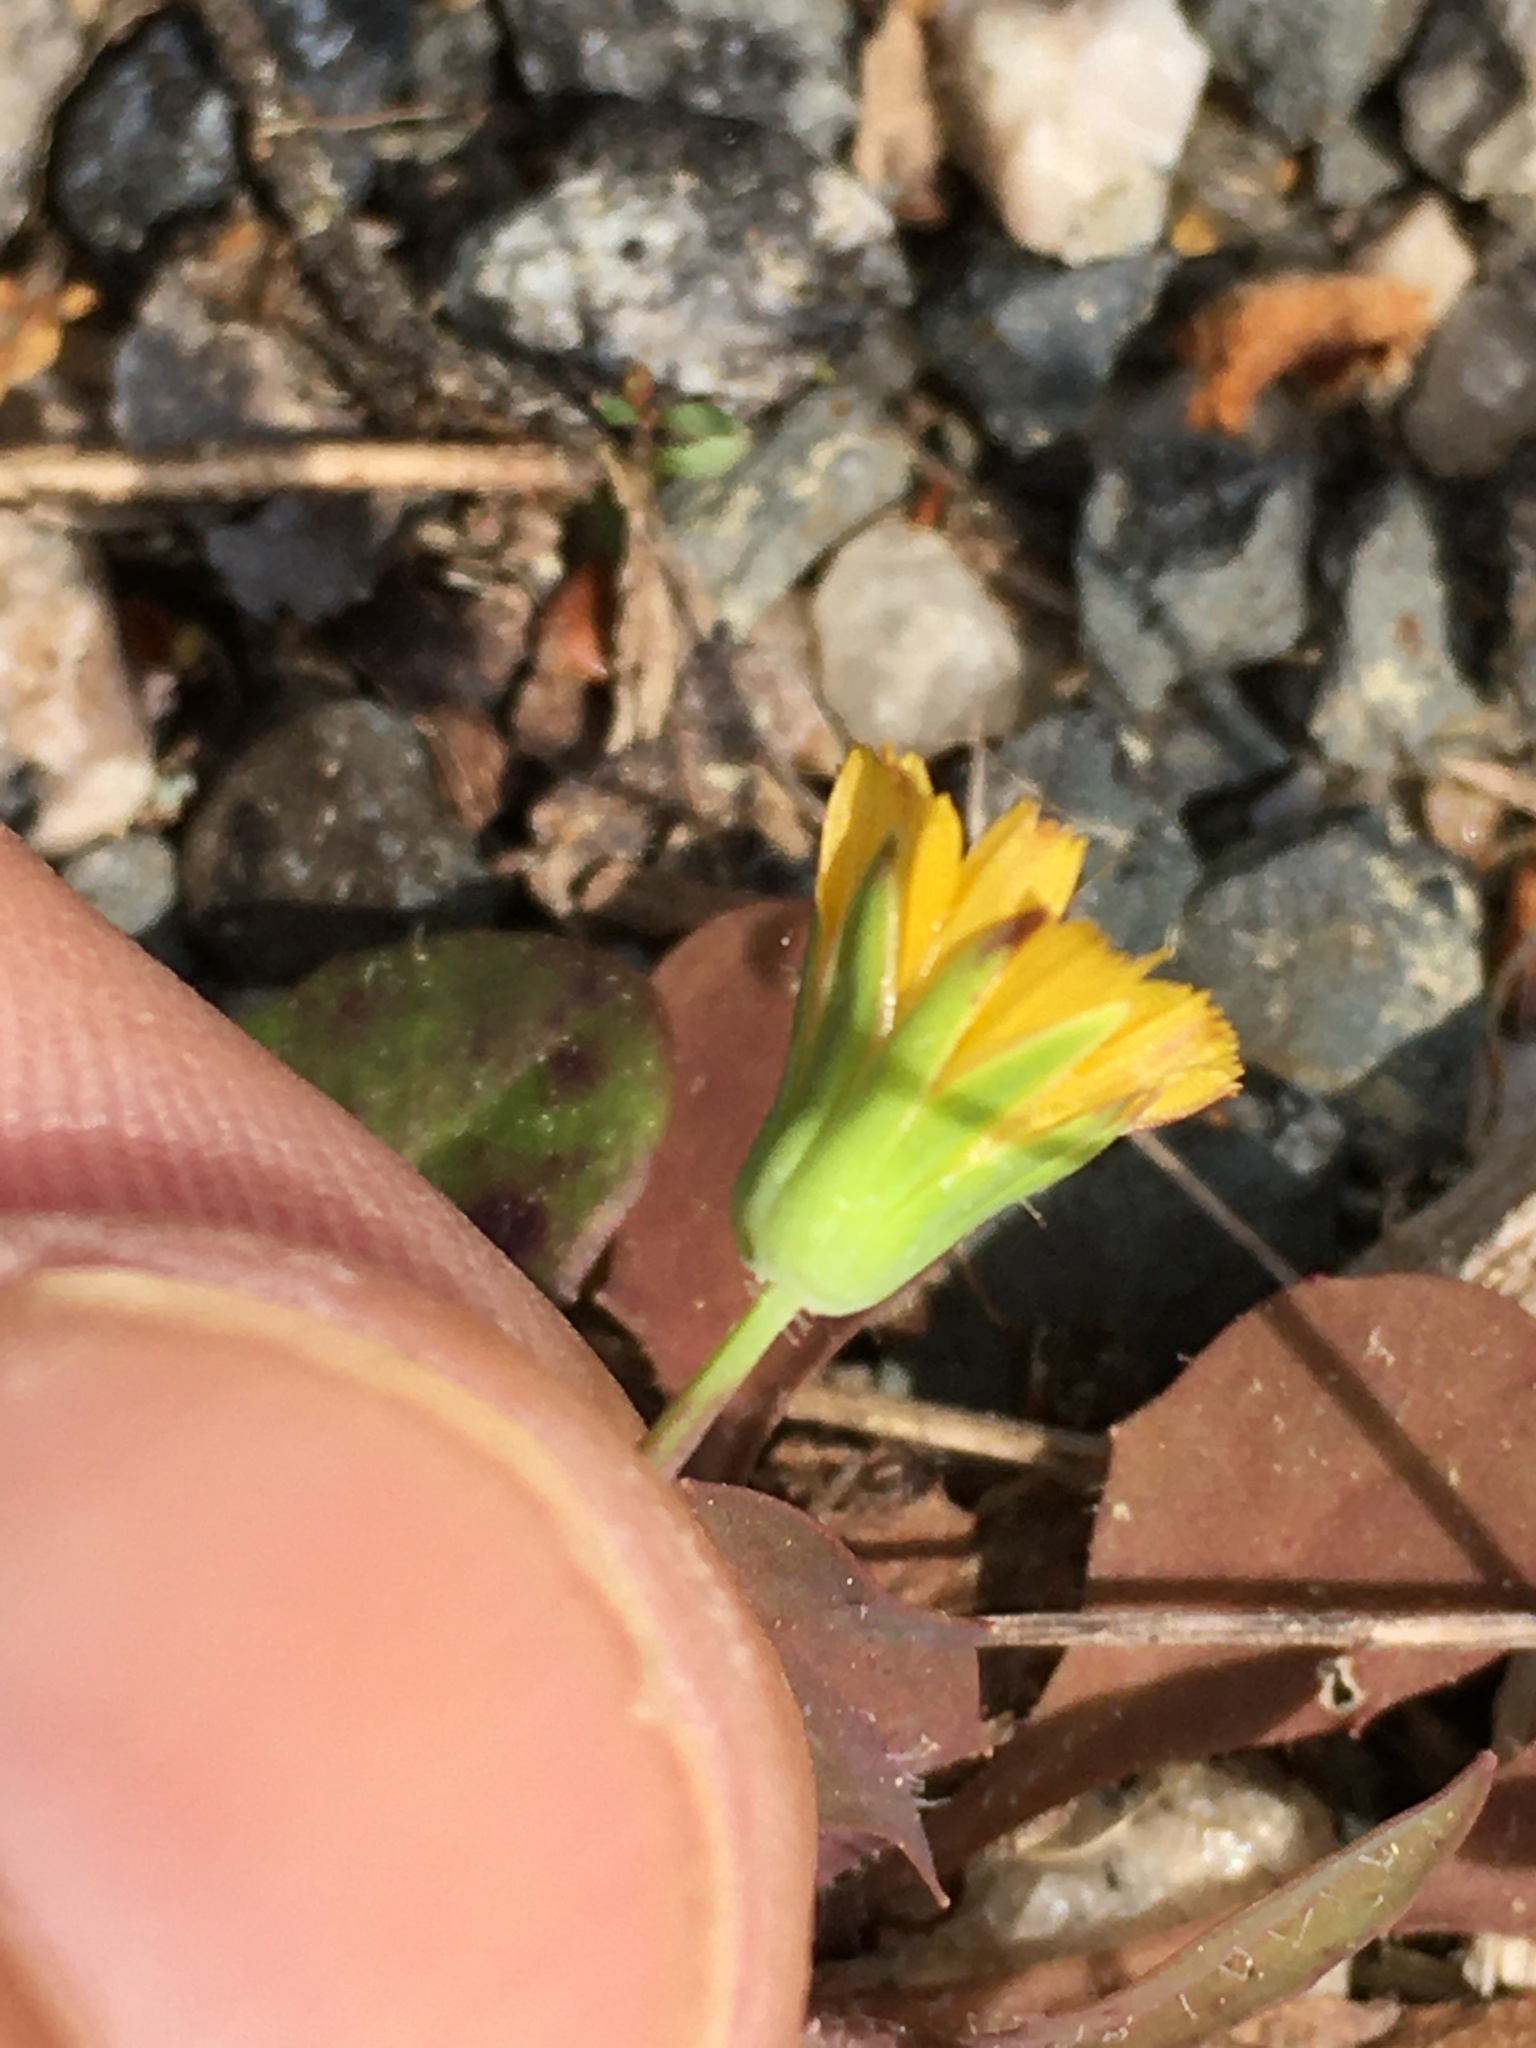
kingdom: Plantae
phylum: Tracheophyta
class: Magnoliopsida
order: Asterales
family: Asteraceae
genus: Krigia
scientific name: Krigia virginica
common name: Virginia dwarf-dandelion
